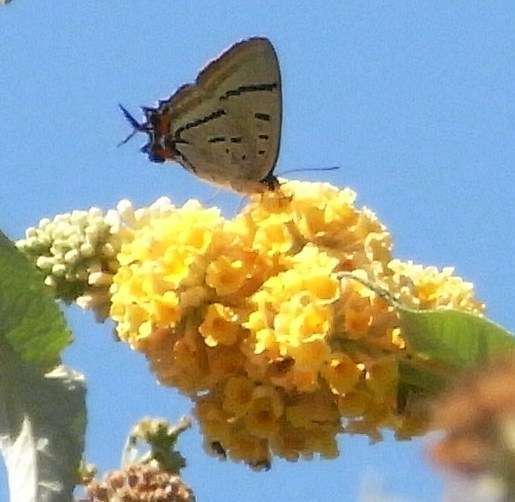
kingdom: Animalia
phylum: Arthropoda
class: Insecta
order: Lepidoptera
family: Lycaenidae
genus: Jalmenus
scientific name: Jalmenus evagoras
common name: Common imperial blue
